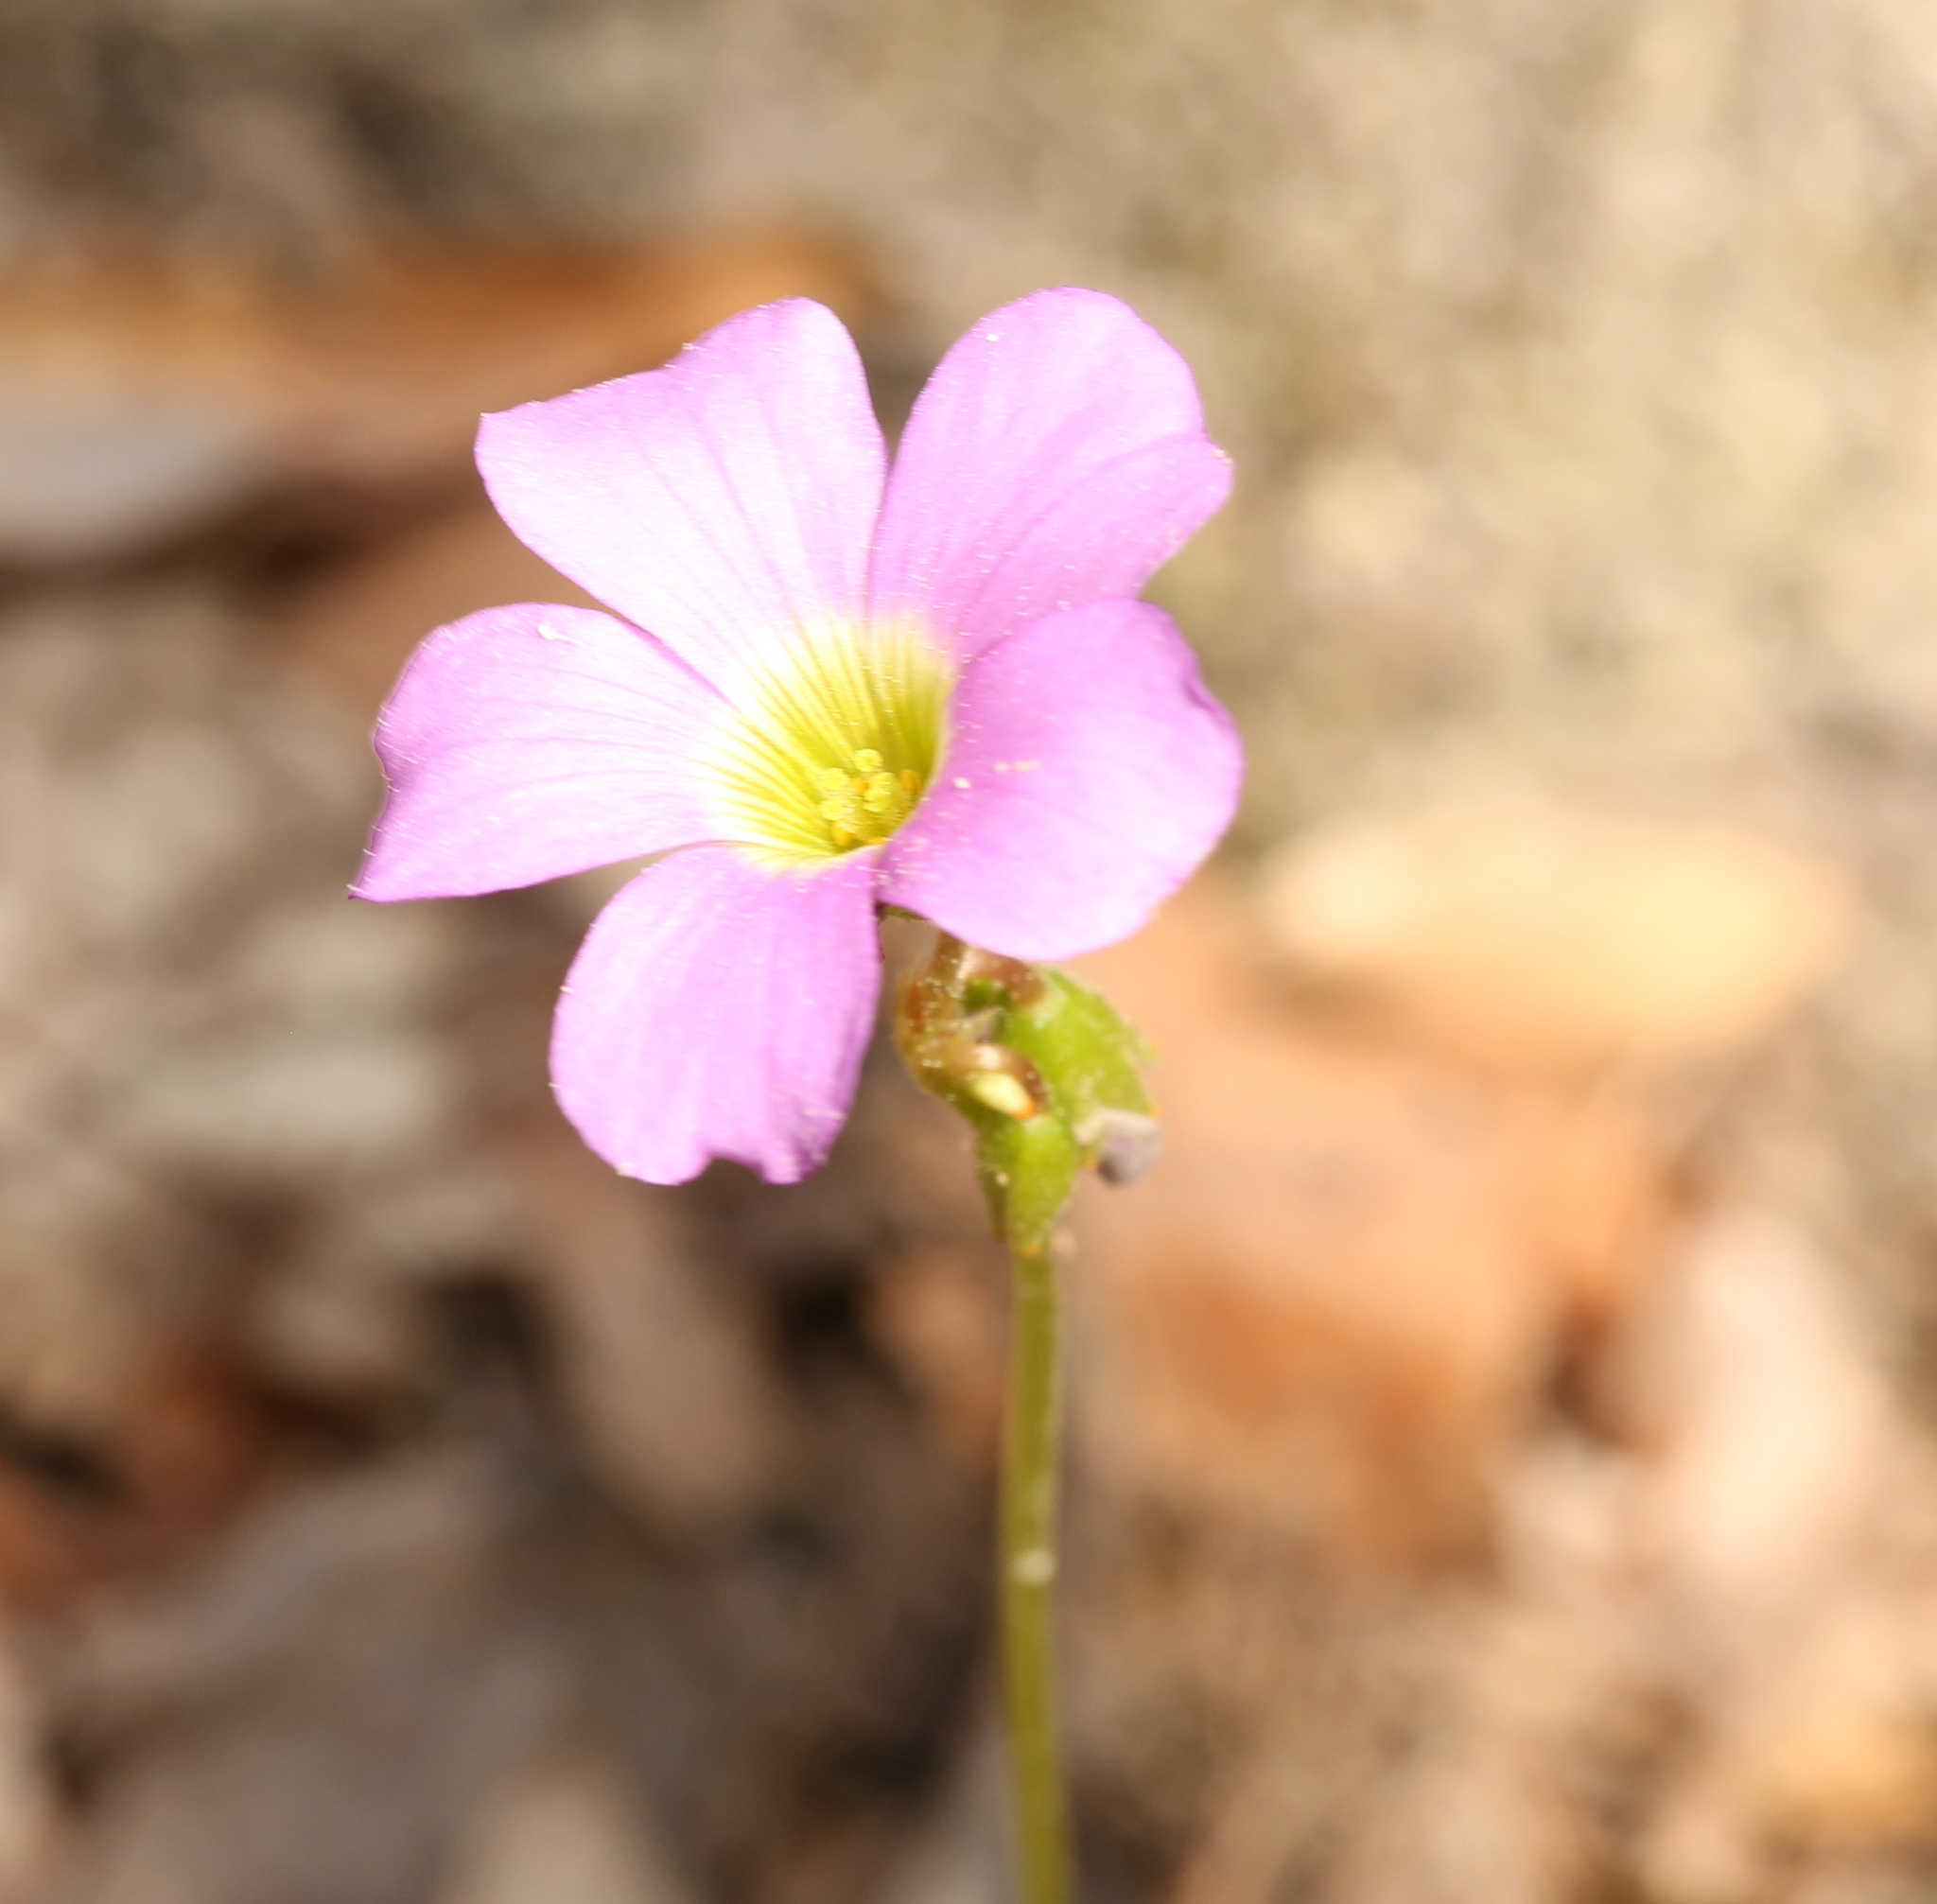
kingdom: Plantae
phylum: Tracheophyta
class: Magnoliopsida
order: Oxalidales
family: Oxalidaceae
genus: Oxalis
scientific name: Oxalis violacea
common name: Violet wood-sorrel
